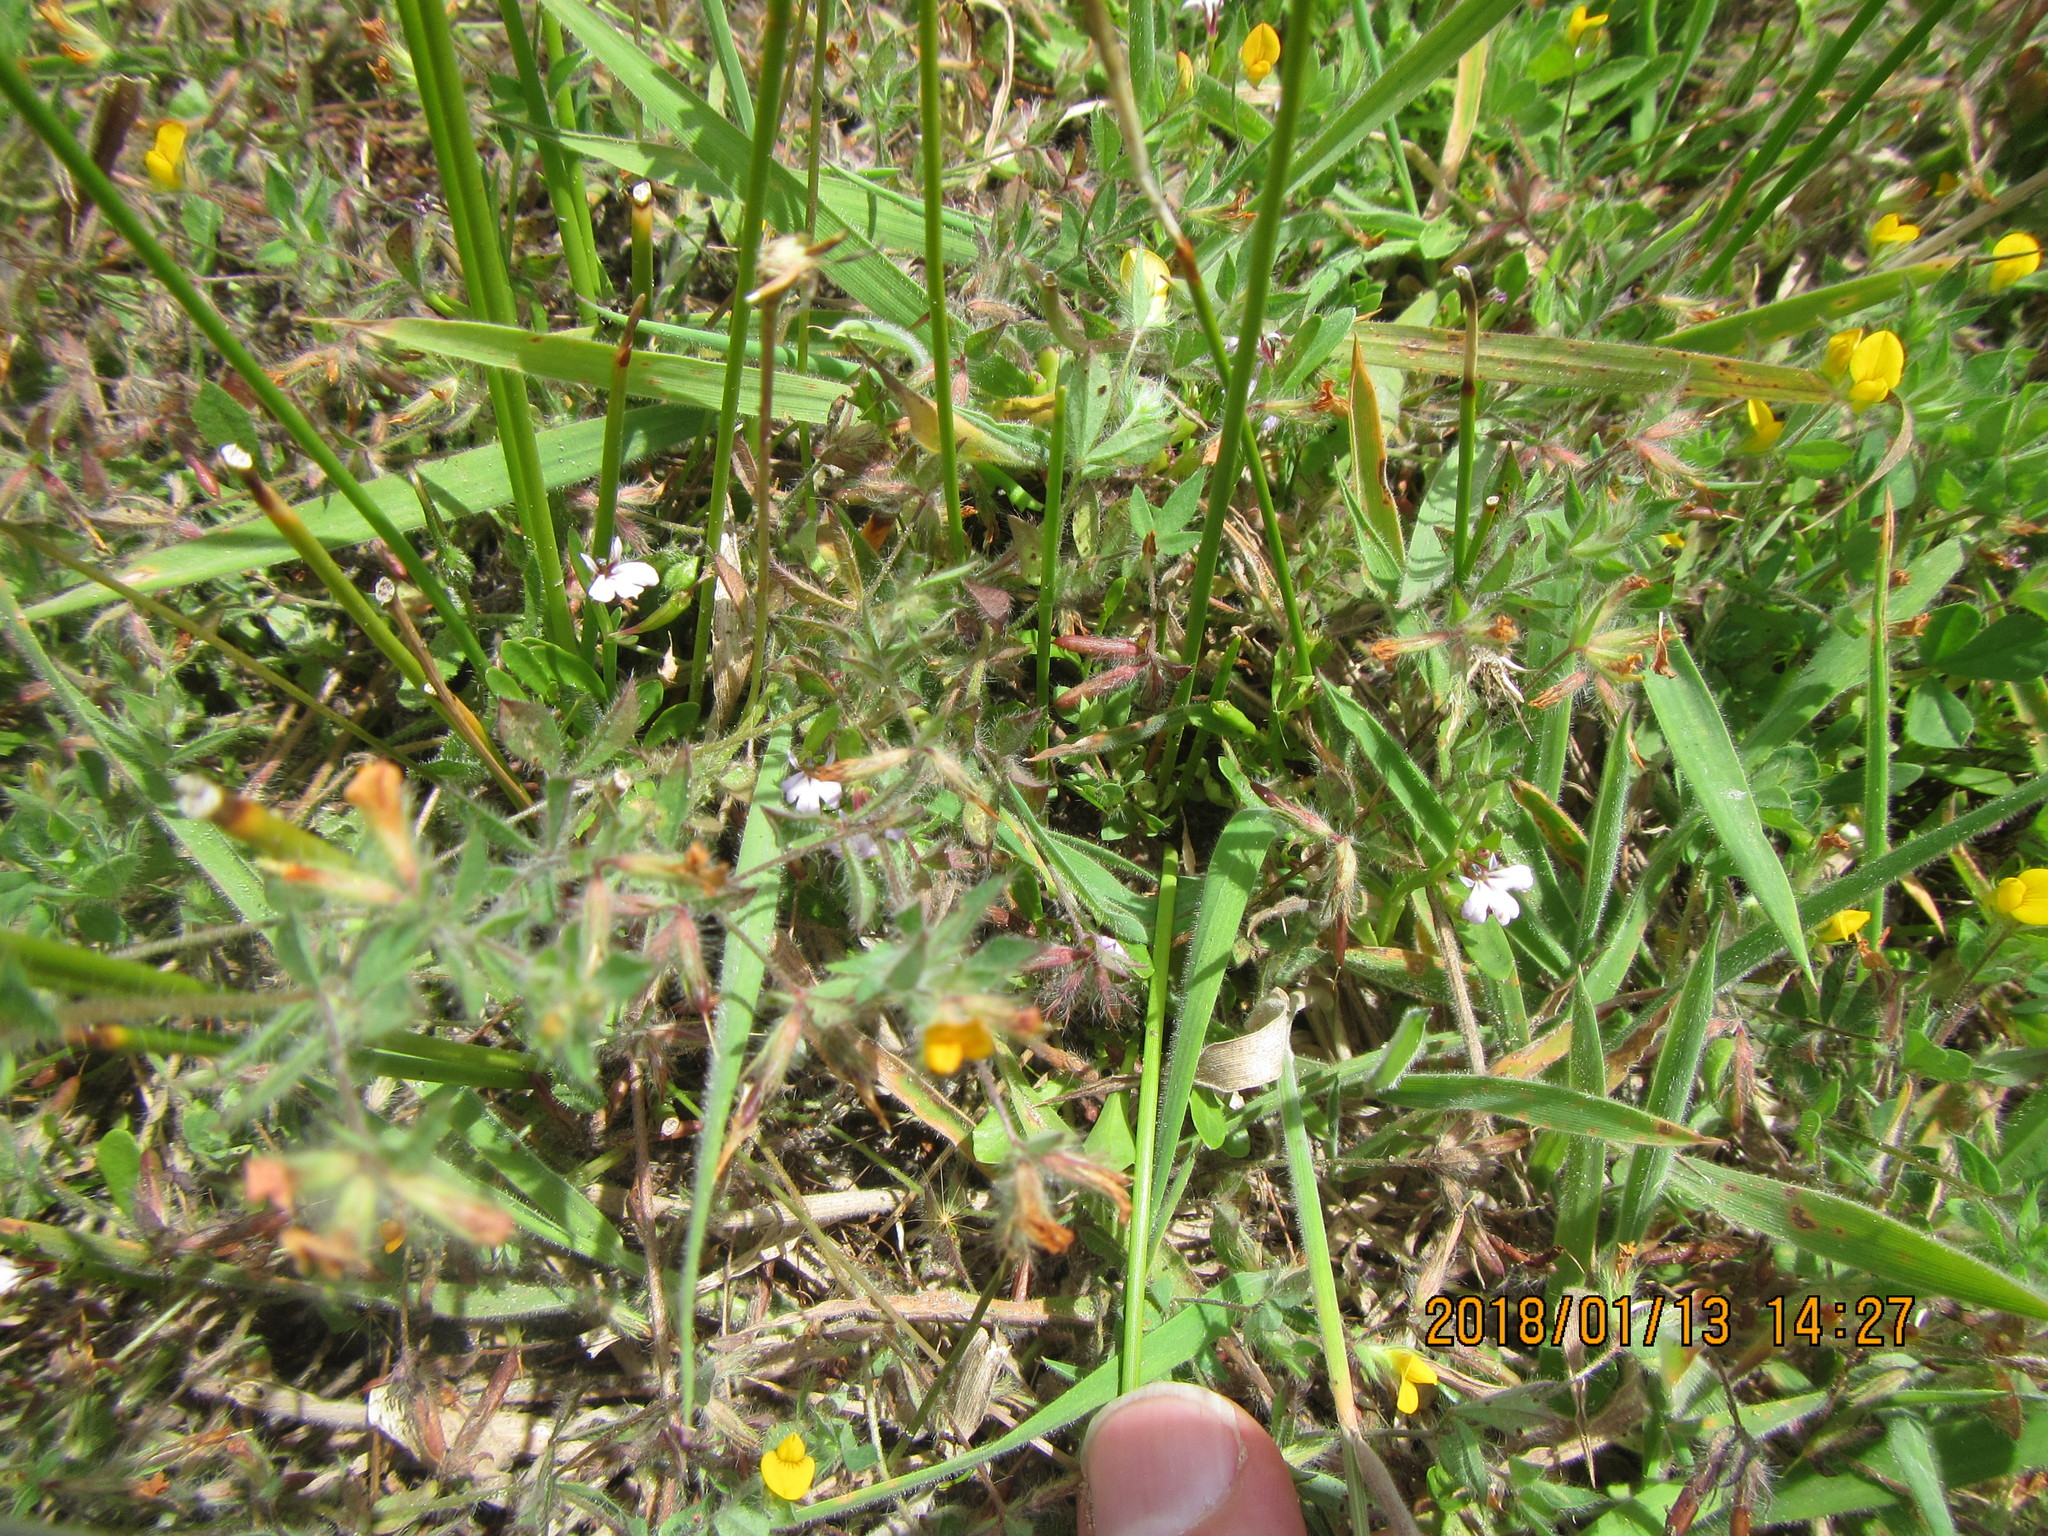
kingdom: Plantae
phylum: Tracheophyta
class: Magnoliopsida
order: Asterales
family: Campanulaceae
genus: Lobelia
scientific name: Lobelia anceps
